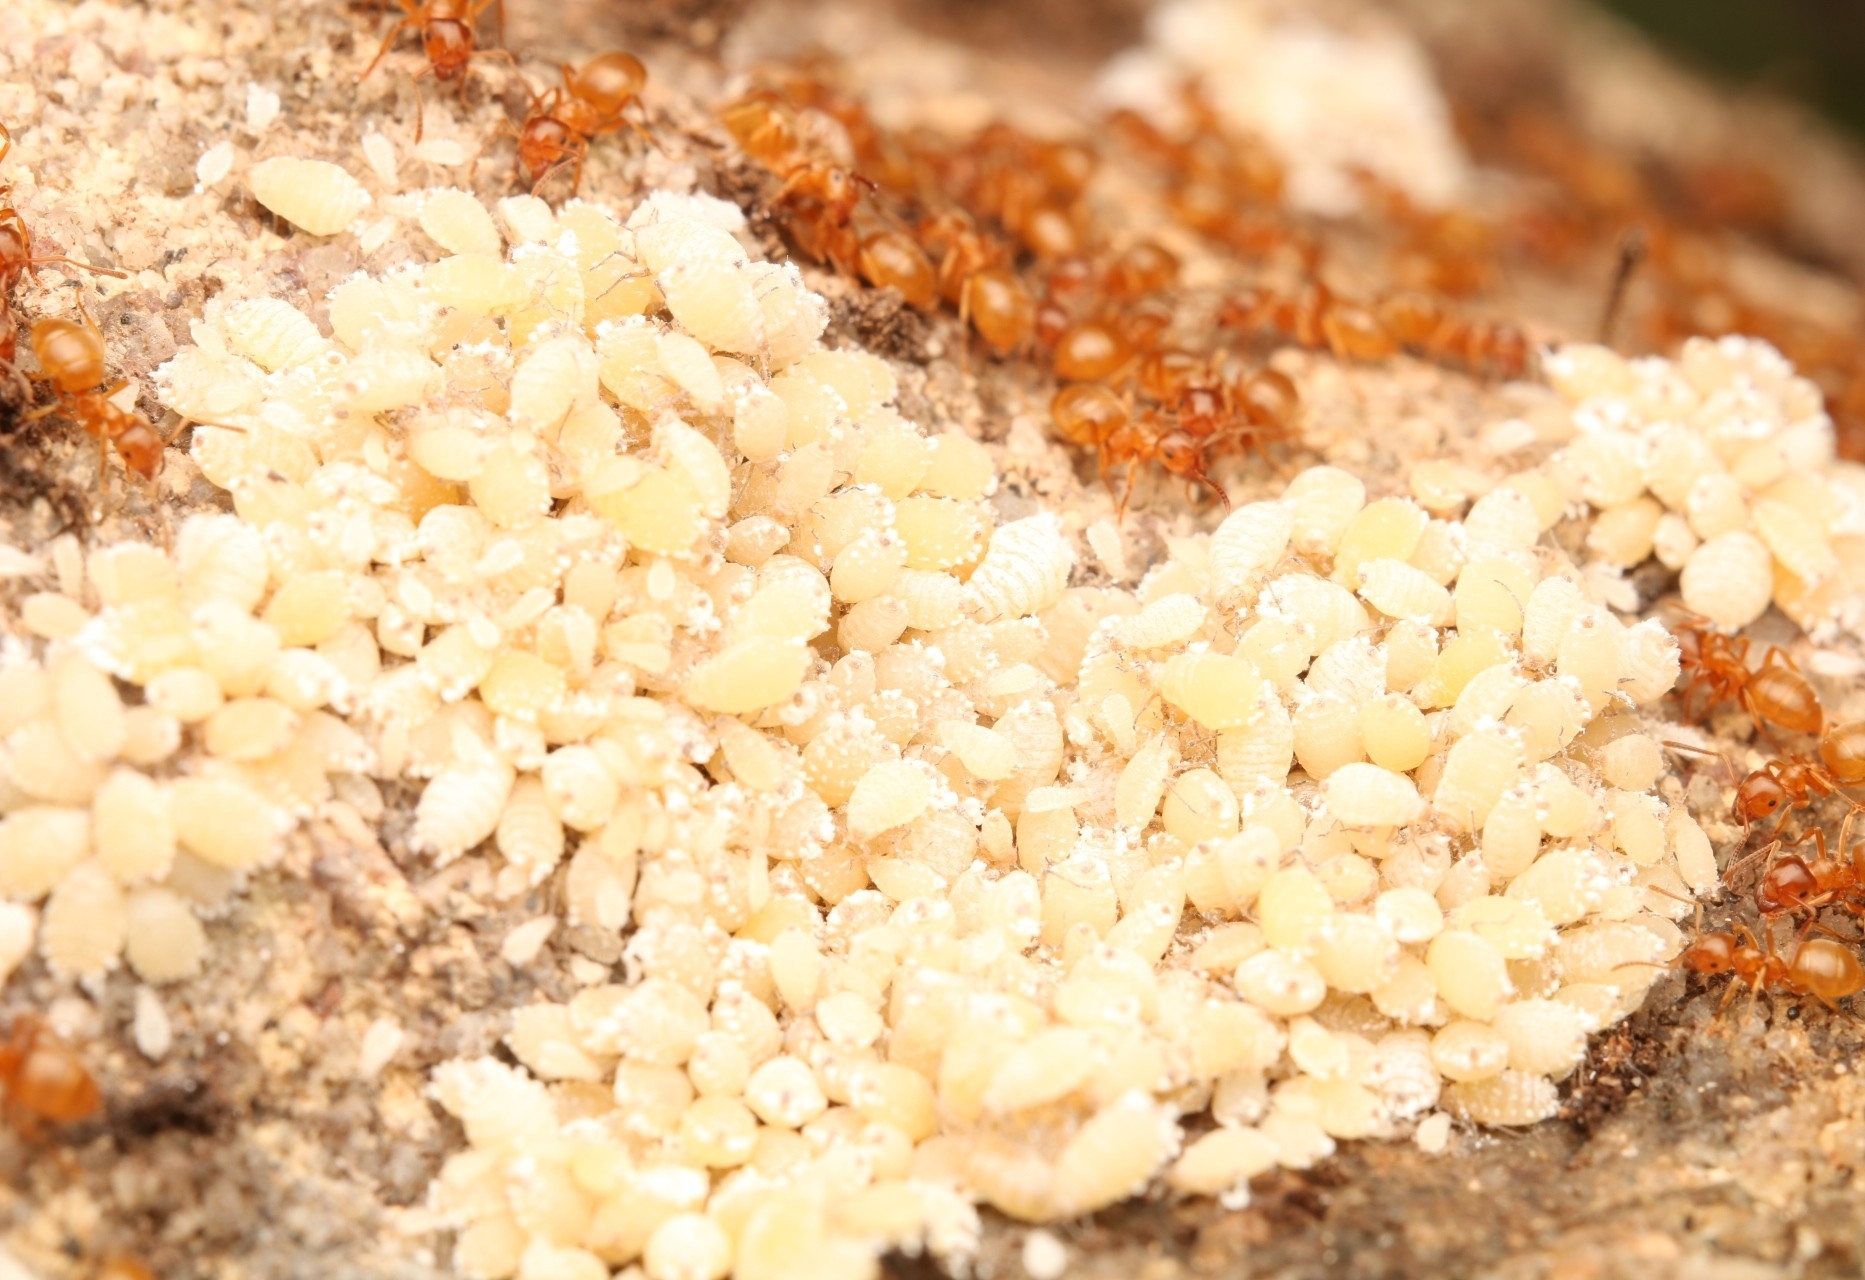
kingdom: Animalia
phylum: Arthropoda
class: Insecta
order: Hymenoptera
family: Formicidae
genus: Lasius
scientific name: Lasius aphidicola
